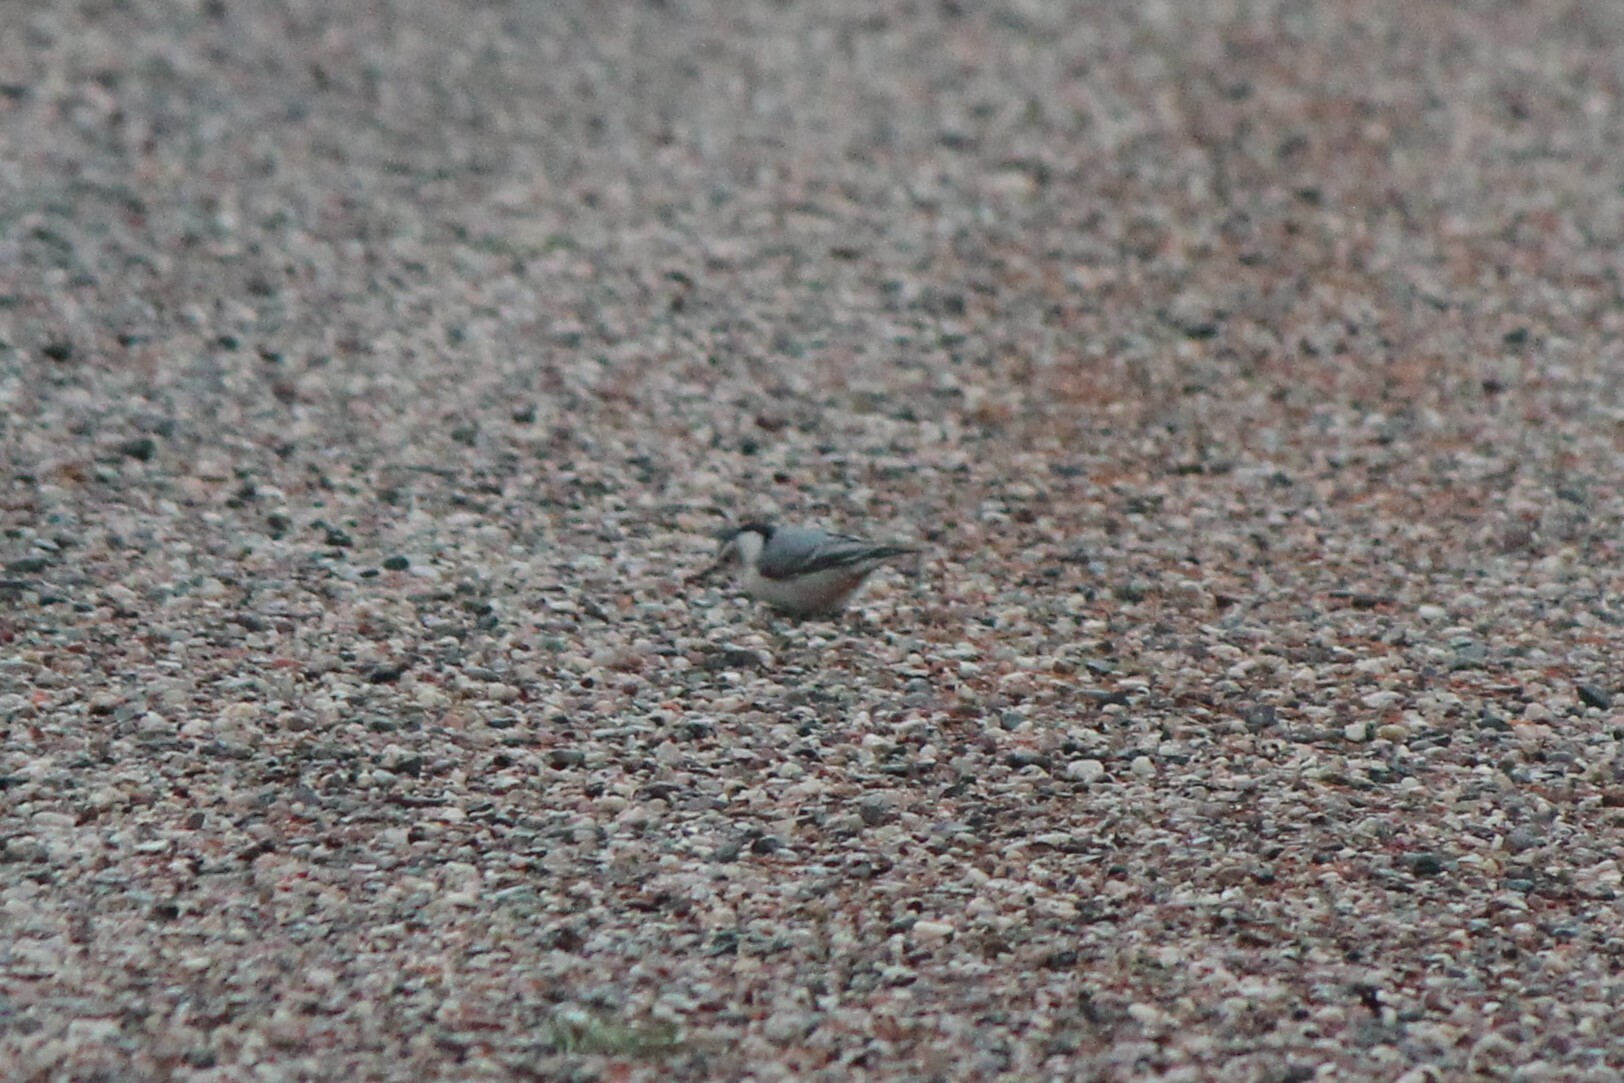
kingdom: Animalia
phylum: Chordata
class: Aves
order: Passeriformes
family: Sittidae
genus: Sitta
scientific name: Sitta carolinensis
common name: White-breasted nuthatch
